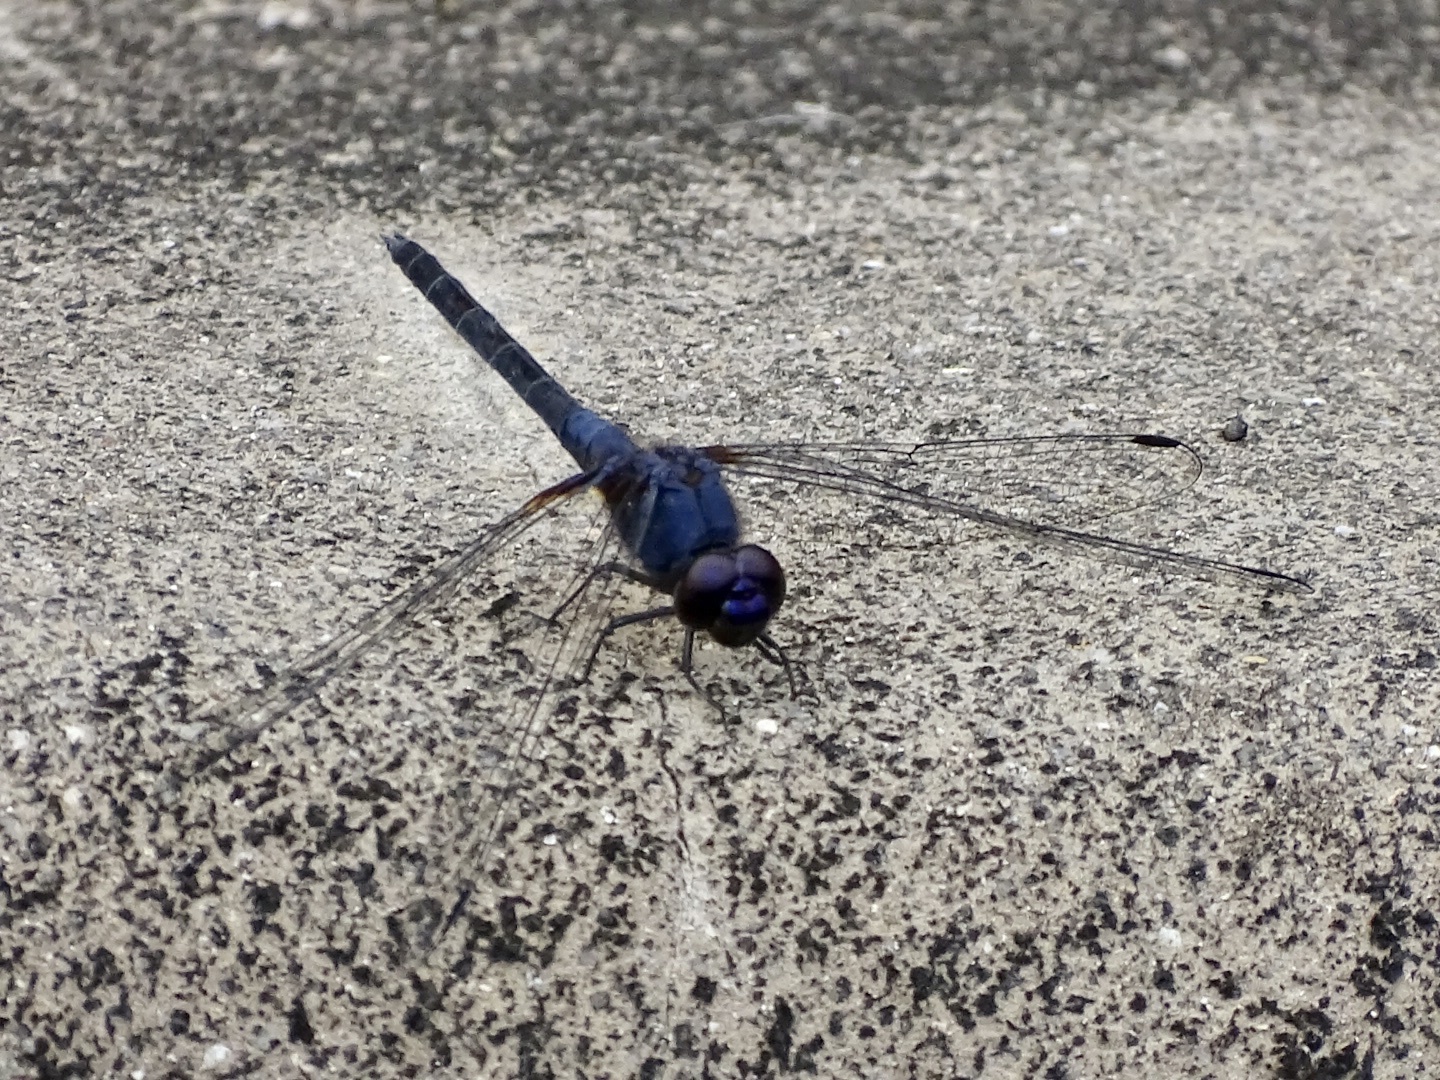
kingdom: Animalia
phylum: Arthropoda
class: Insecta
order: Odonata
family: Libellulidae
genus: Trithemis
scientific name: Trithemis festiva
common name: Indigo dropwing
